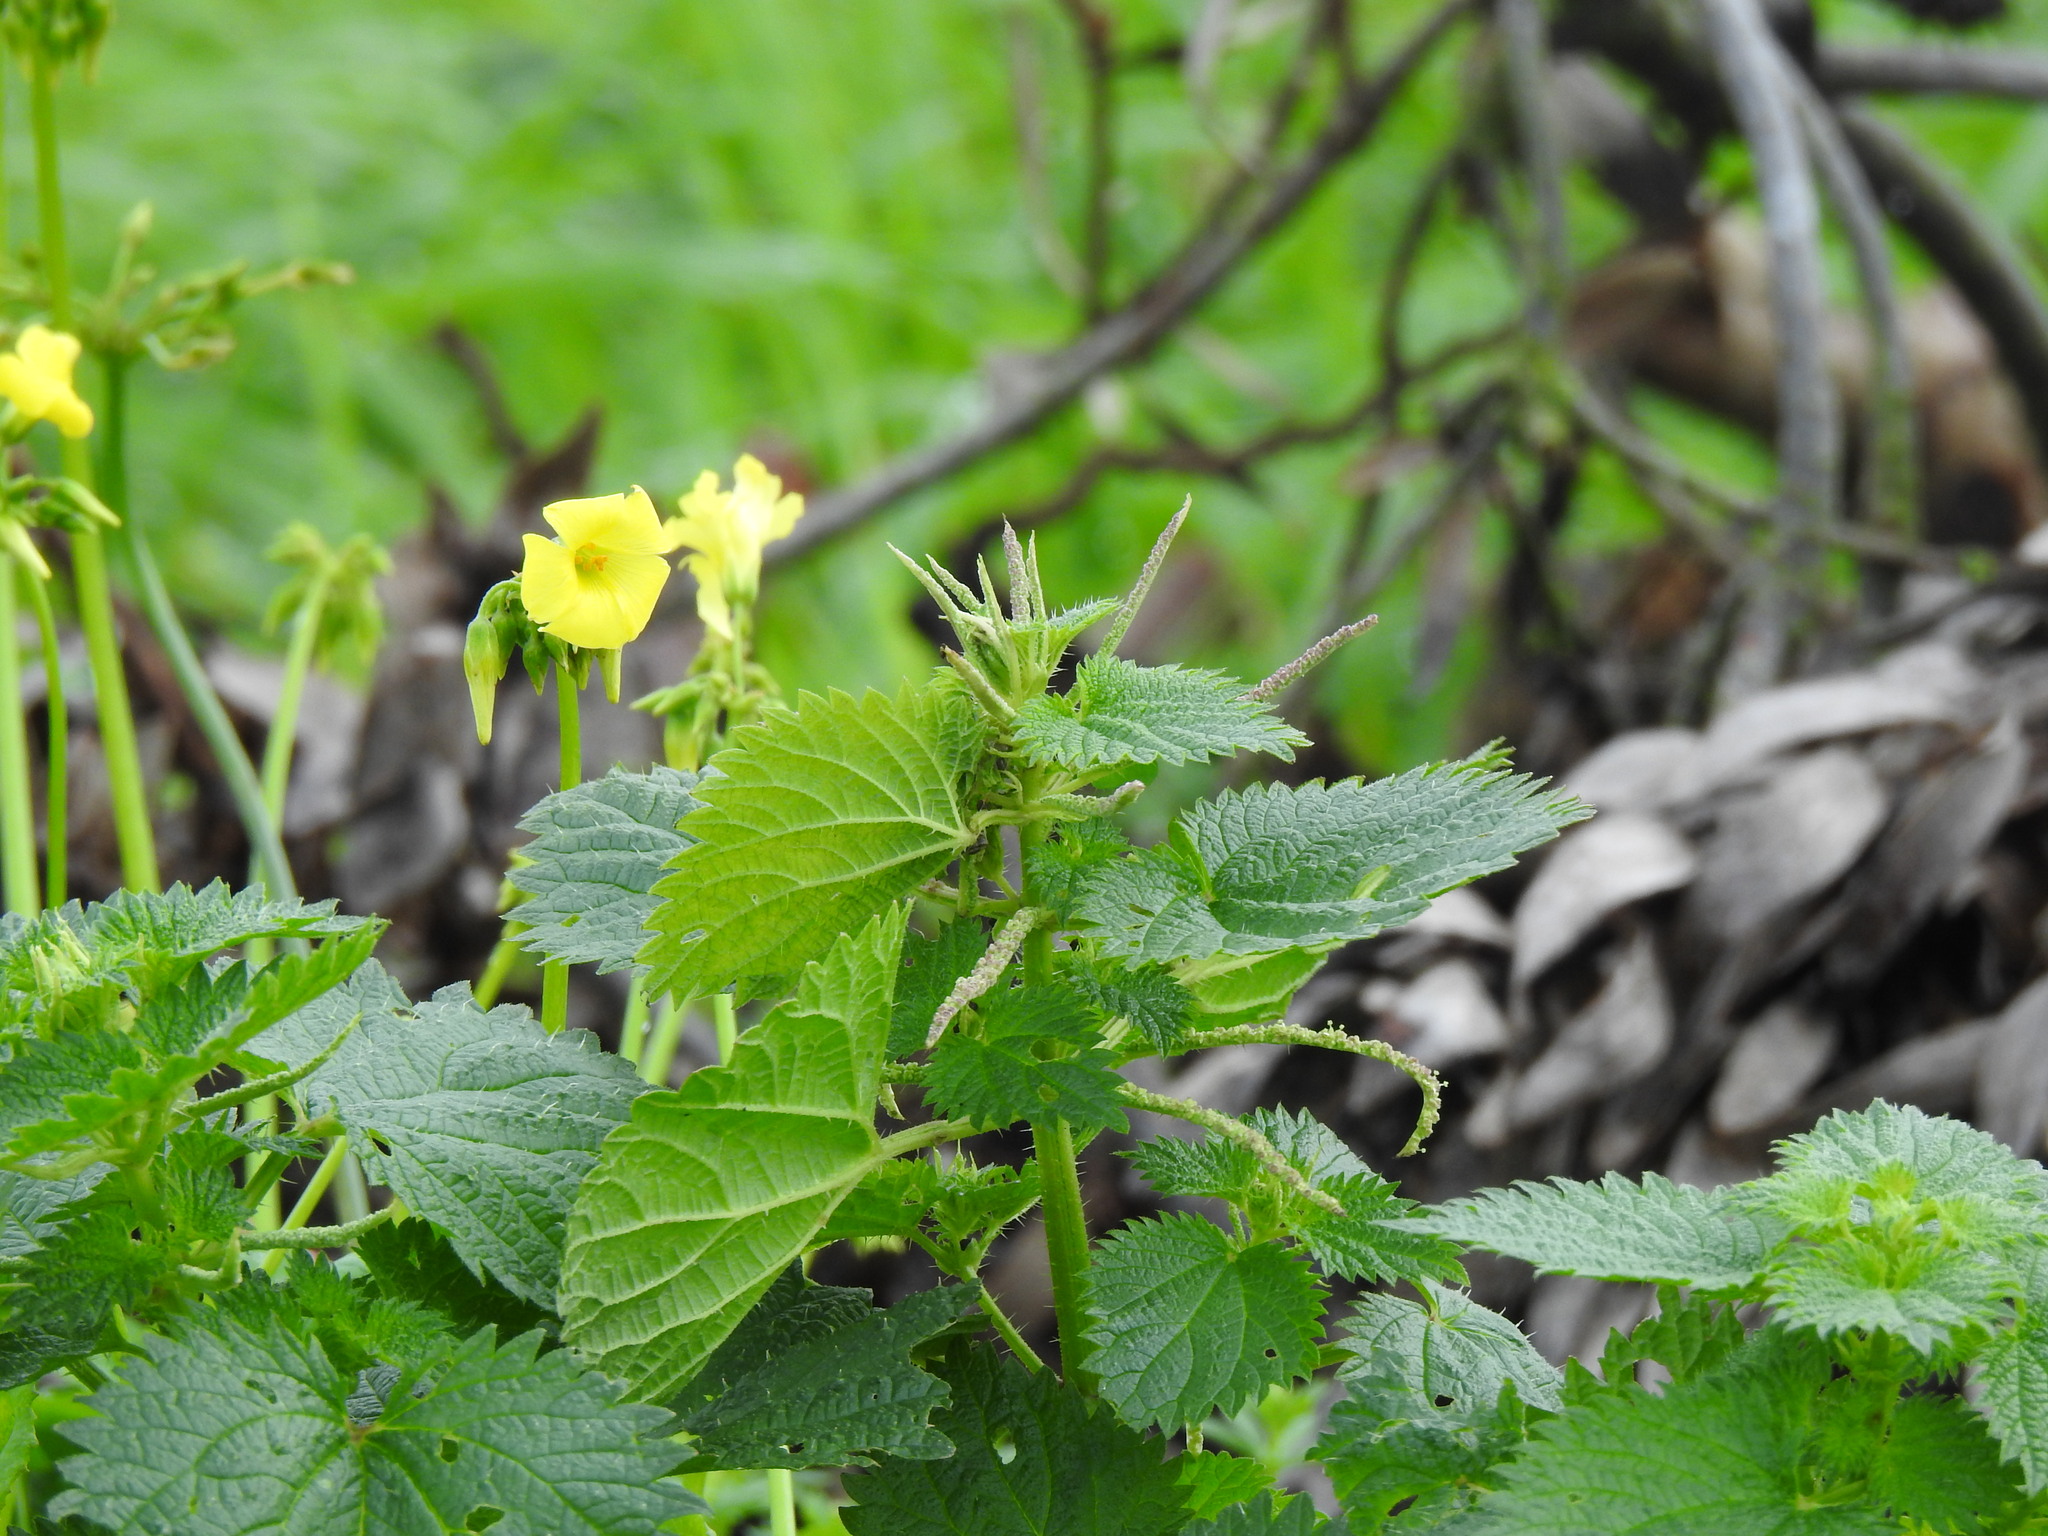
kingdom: Plantae
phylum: Tracheophyta
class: Magnoliopsida
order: Rosales
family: Urticaceae
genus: Urtica
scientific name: Urtica membranacea
